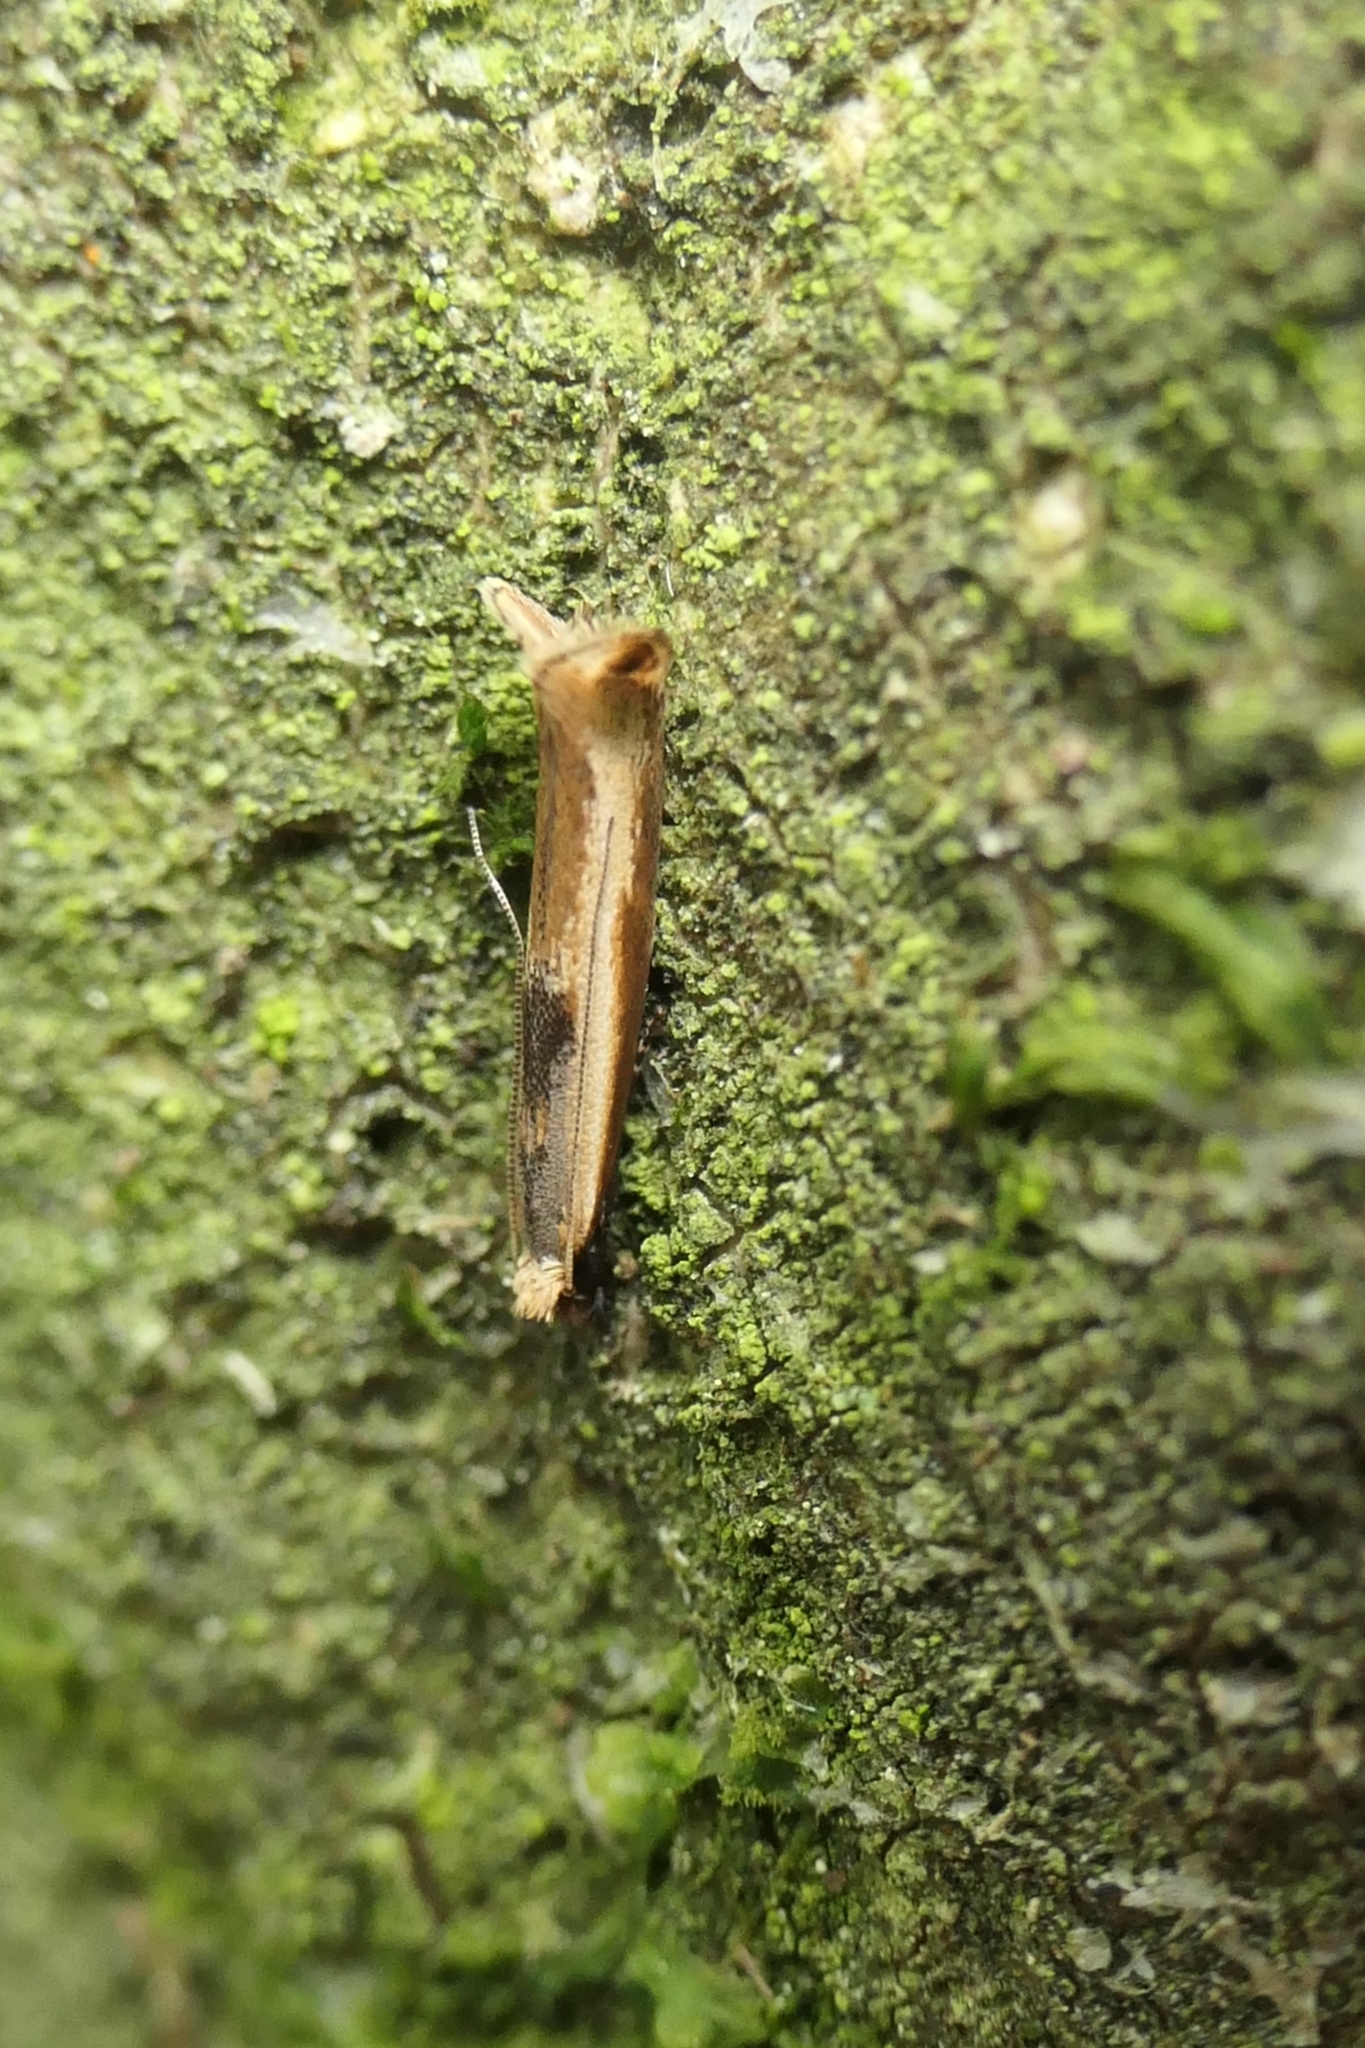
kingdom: Animalia
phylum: Arthropoda
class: Insecta
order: Lepidoptera
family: Tineidae
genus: Erechthias
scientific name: Erechthias charadrota
